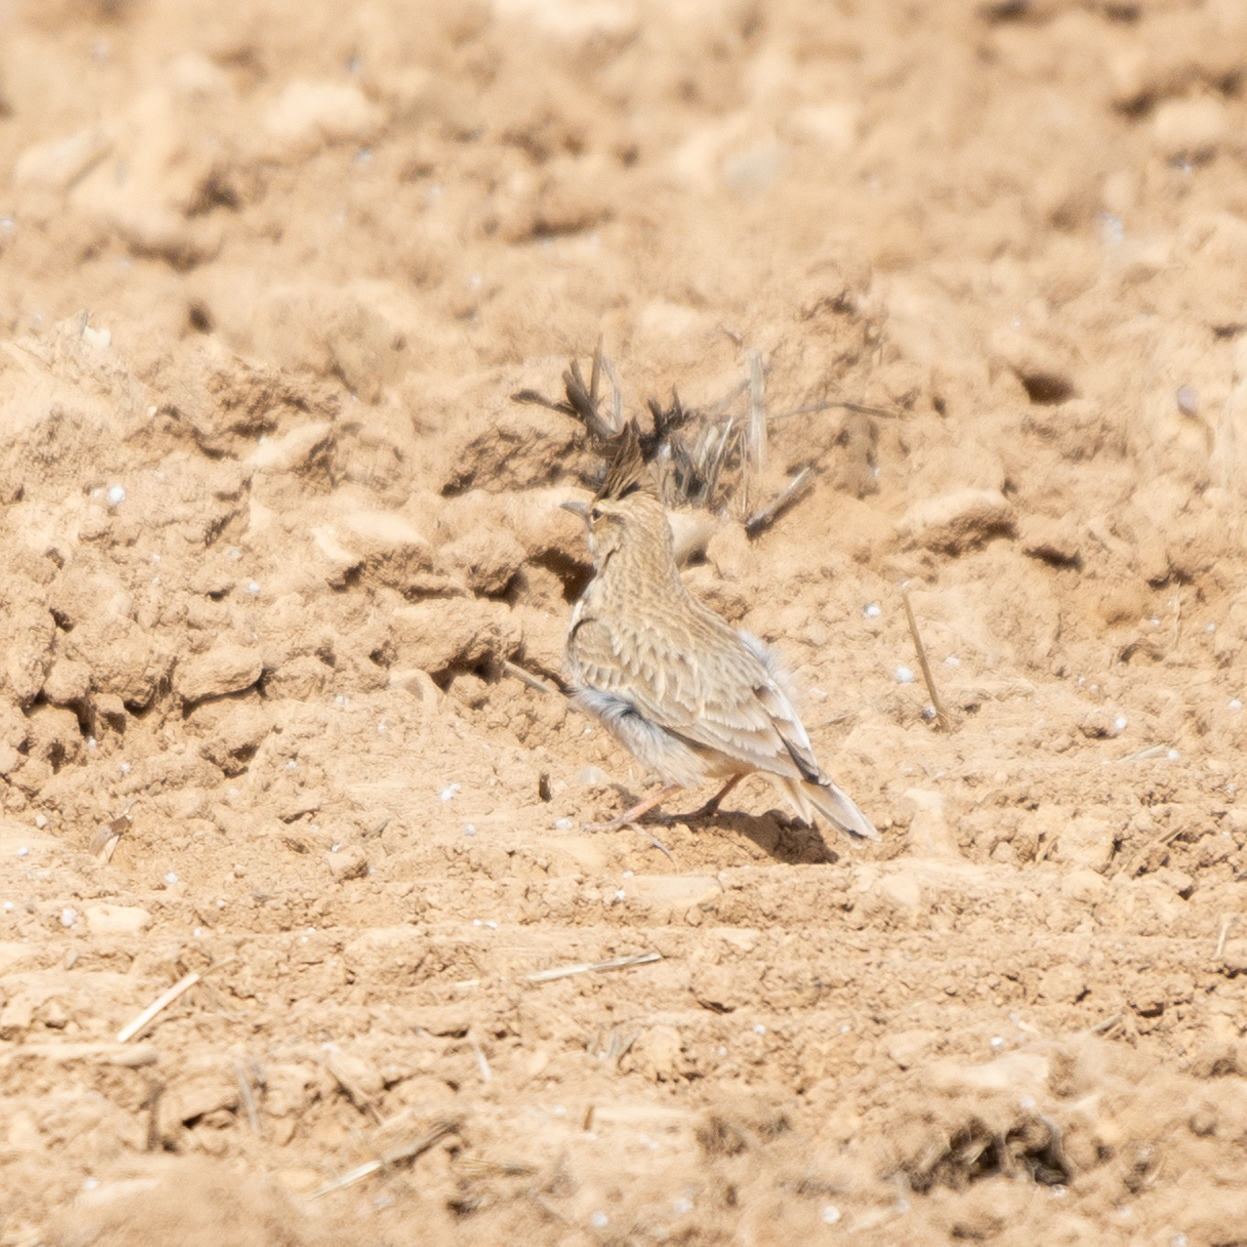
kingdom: Animalia
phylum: Chordata
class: Aves
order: Passeriformes
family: Alaudidae
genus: Galerida
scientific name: Galerida cristata
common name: Crested lark
